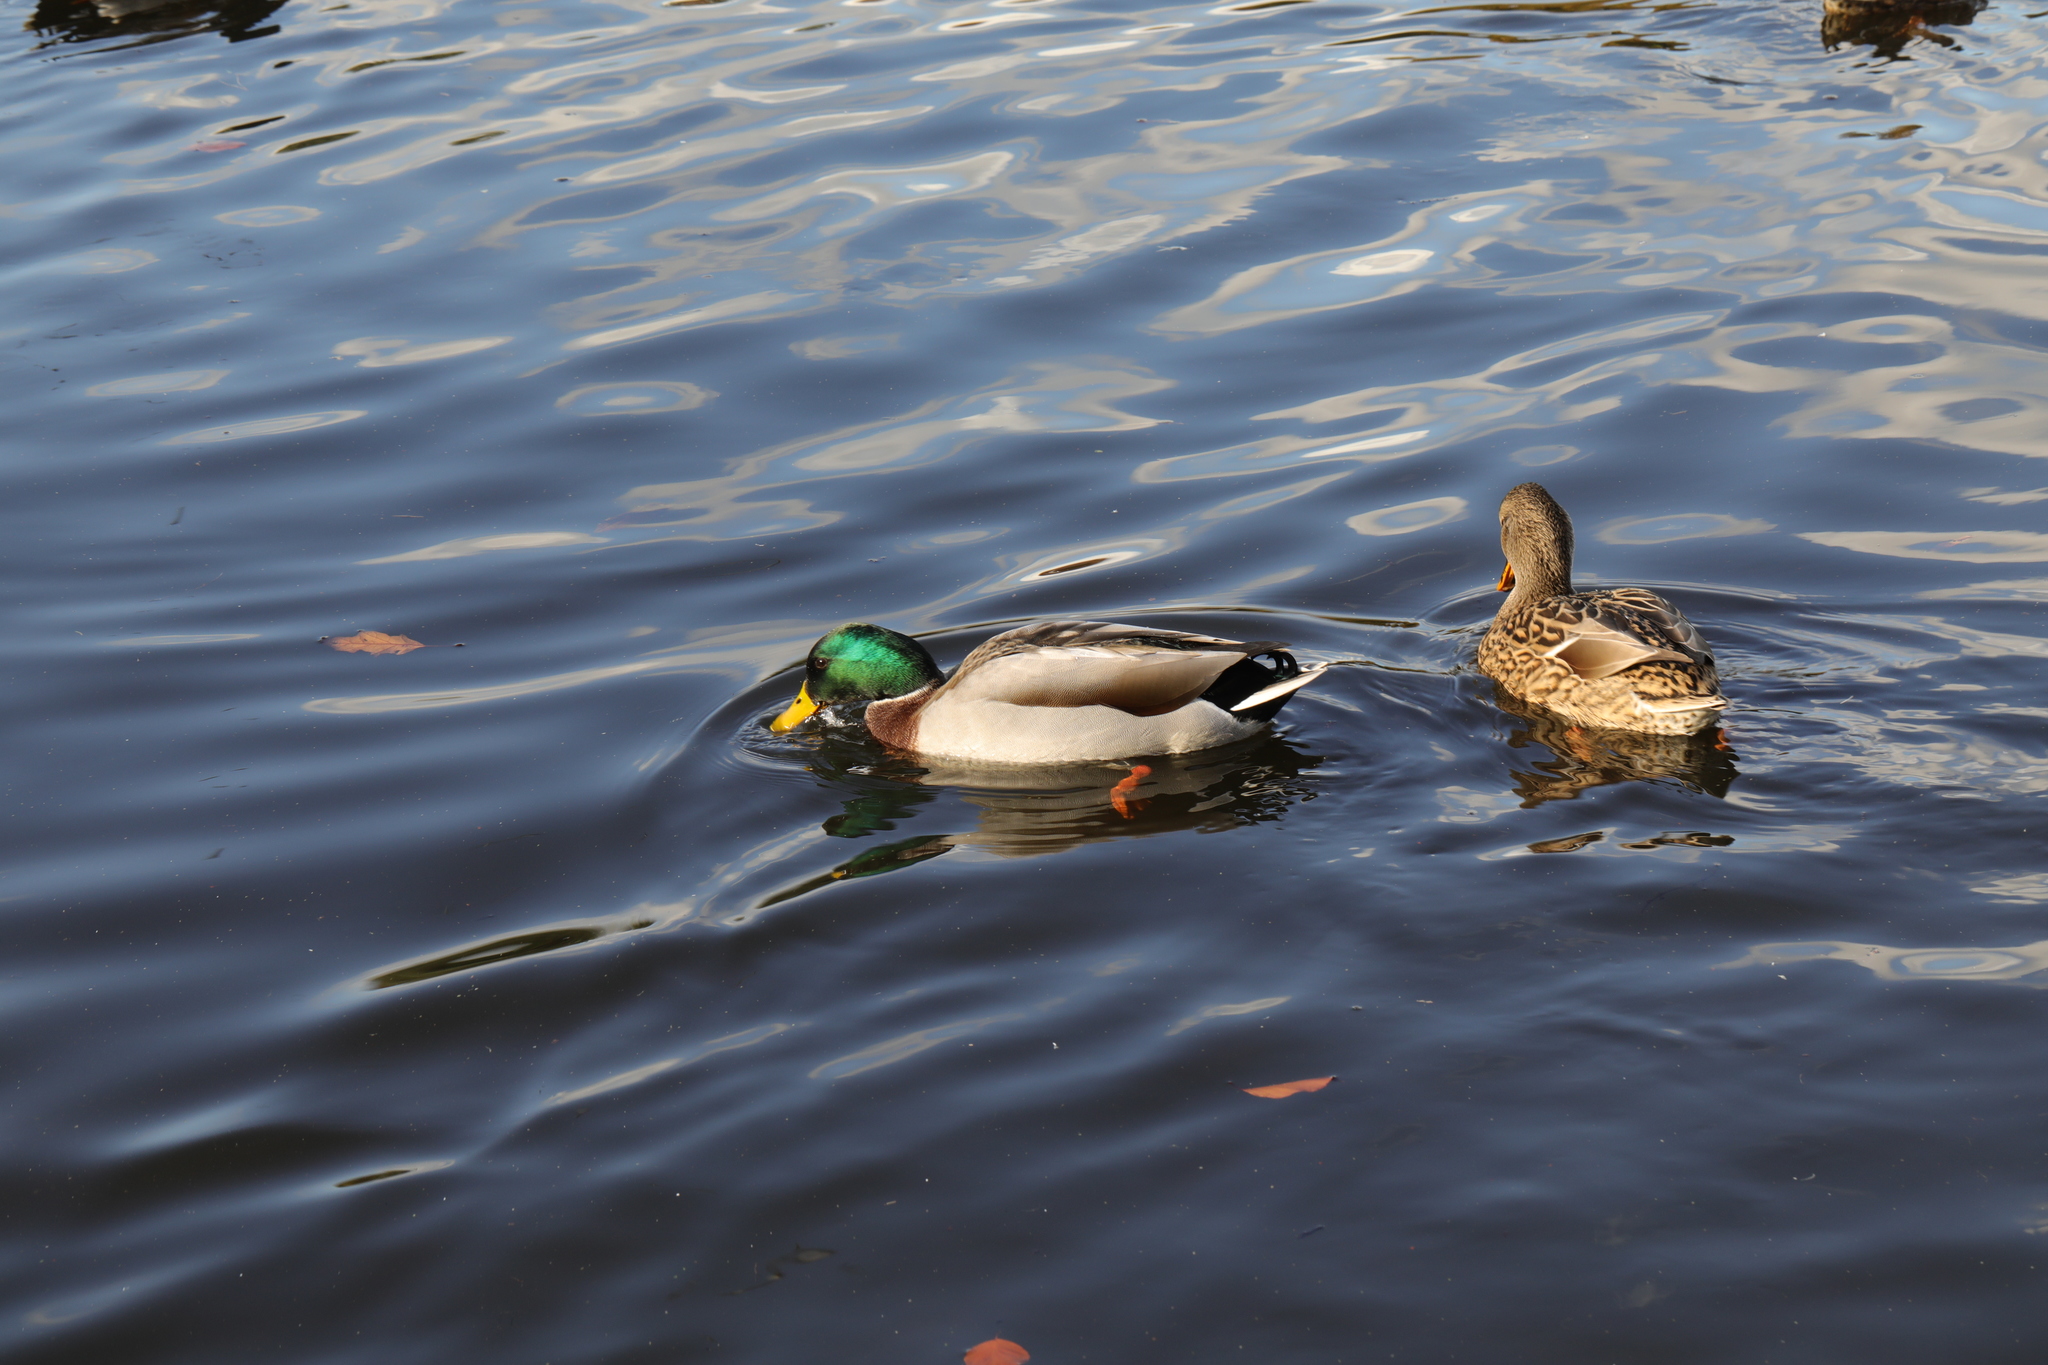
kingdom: Animalia
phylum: Chordata
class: Aves
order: Anseriformes
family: Anatidae
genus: Anas
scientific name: Anas platyrhynchos
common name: Mallard
